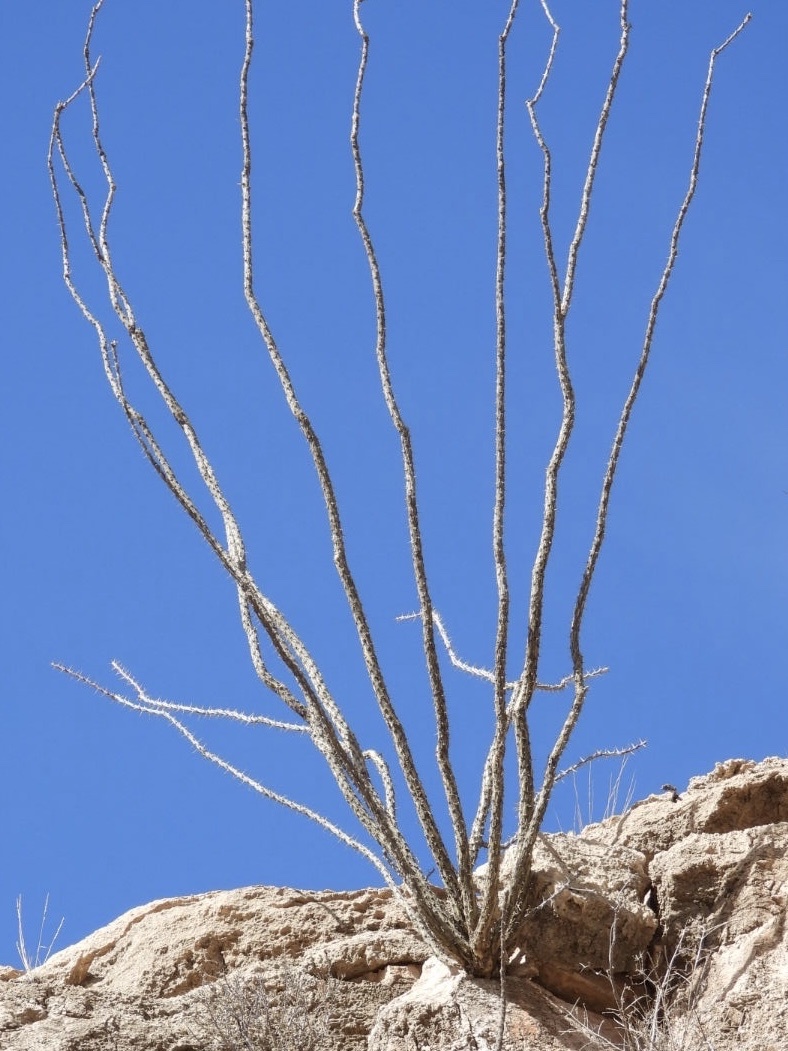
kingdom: Plantae
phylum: Tracheophyta
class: Magnoliopsida
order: Ericales
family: Fouquieriaceae
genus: Fouquieria
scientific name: Fouquieria splendens
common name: Vine-cactus
